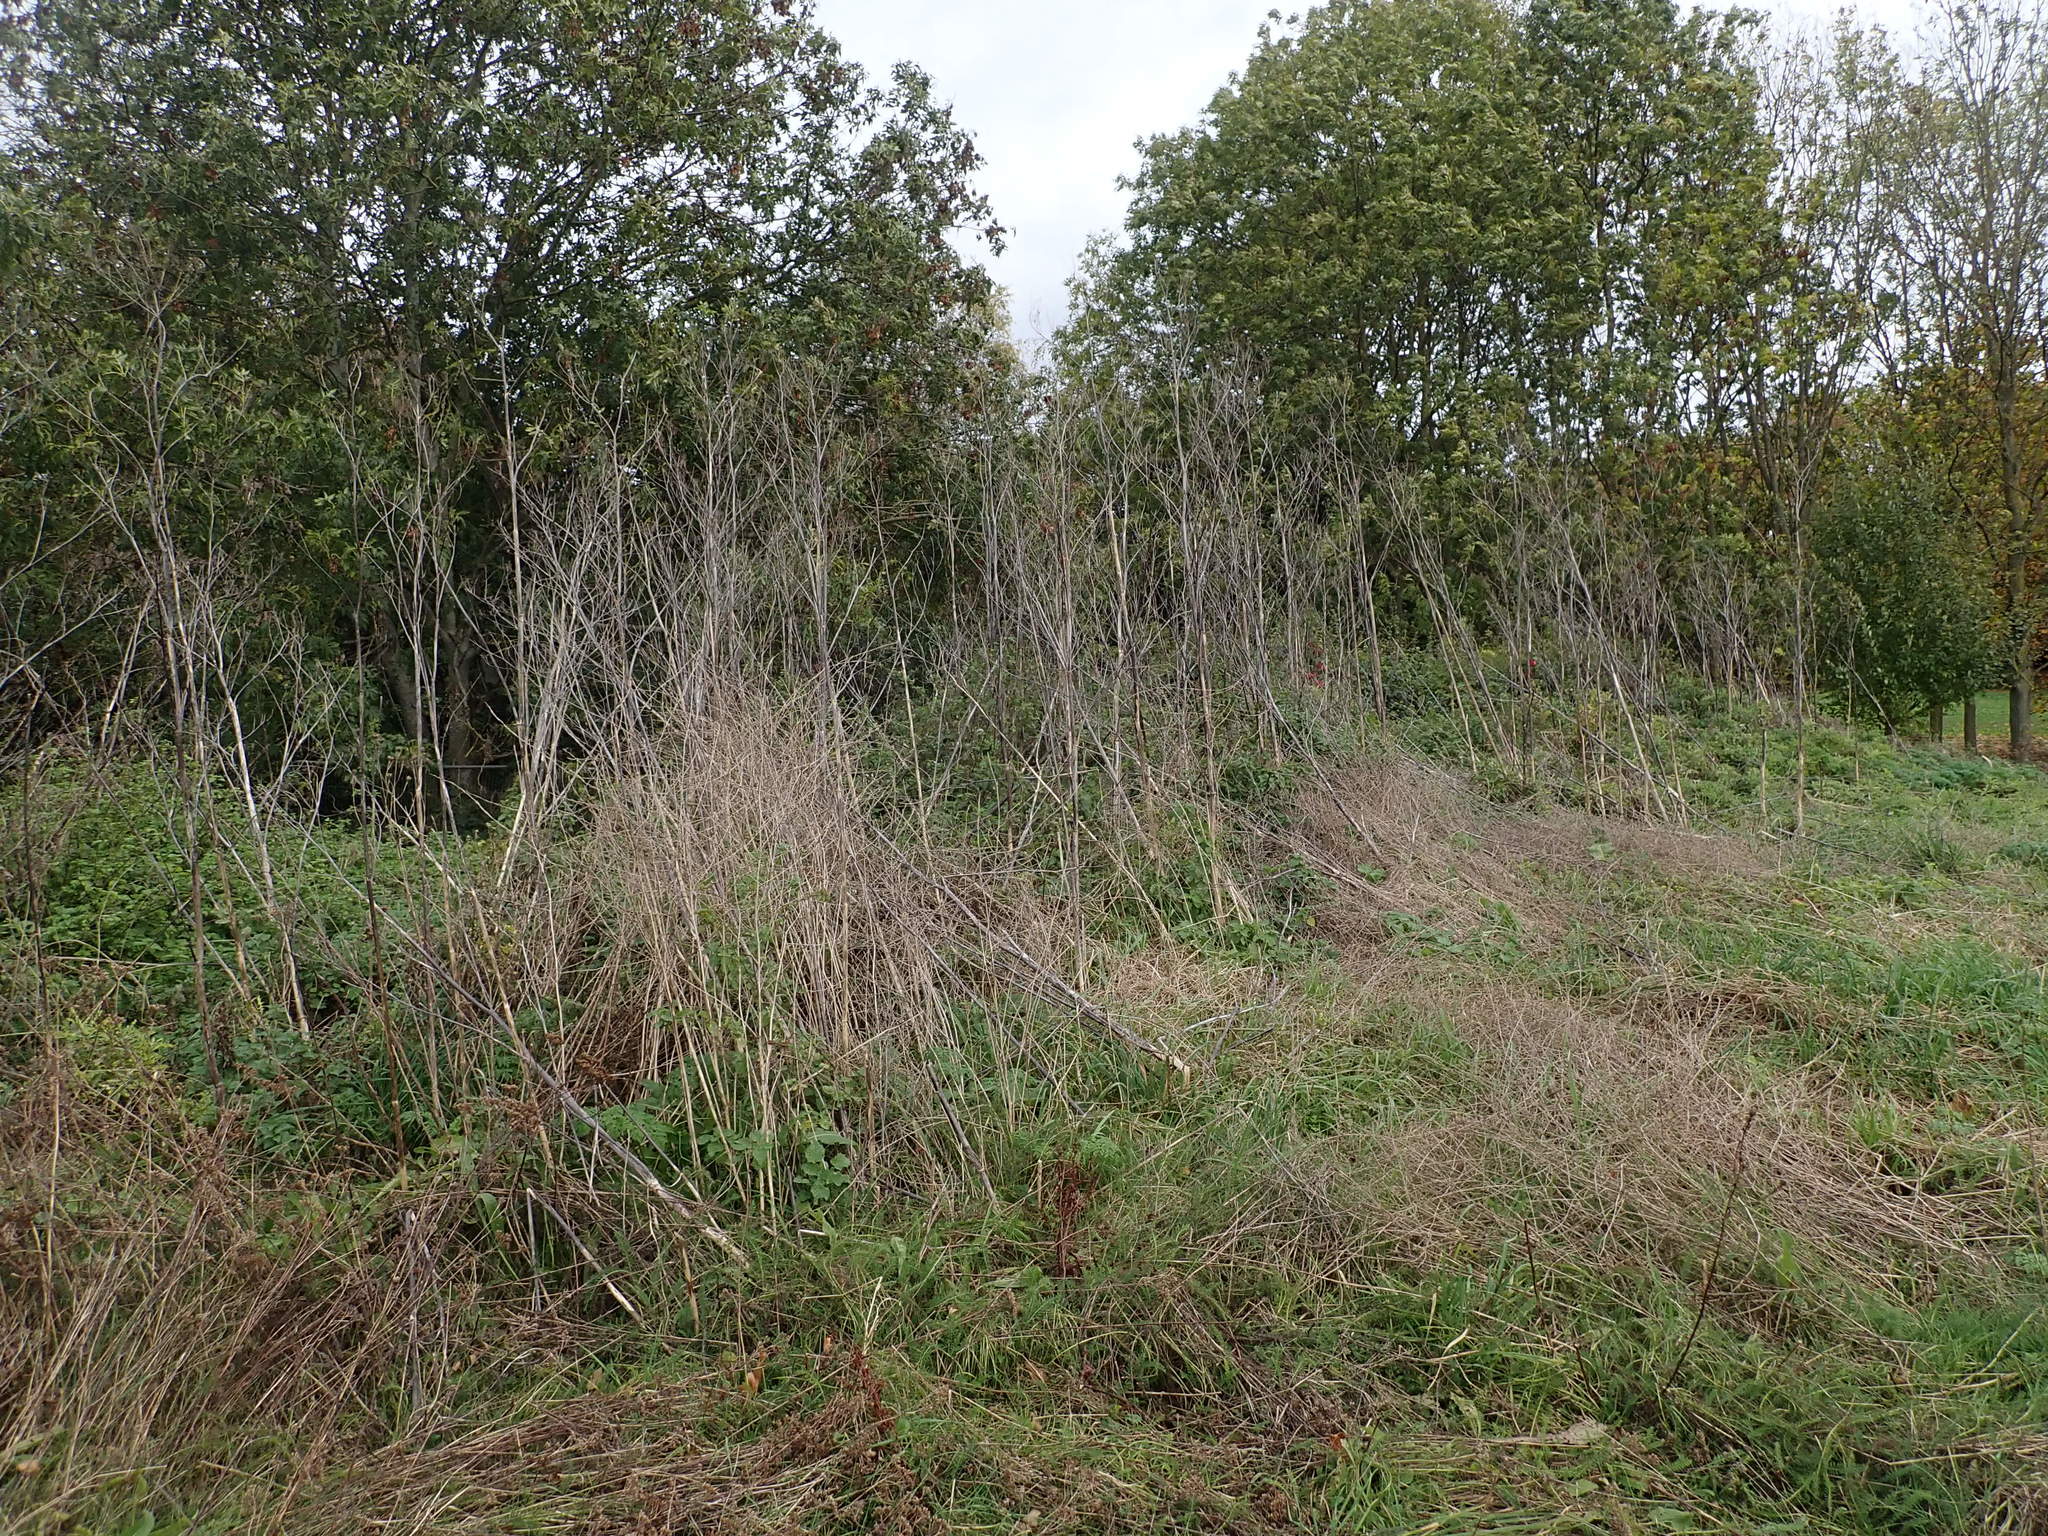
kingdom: Plantae
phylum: Tracheophyta
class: Magnoliopsida
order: Apiales
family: Apiaceae
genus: Conium
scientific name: Conium maculatum
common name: Hemlock
